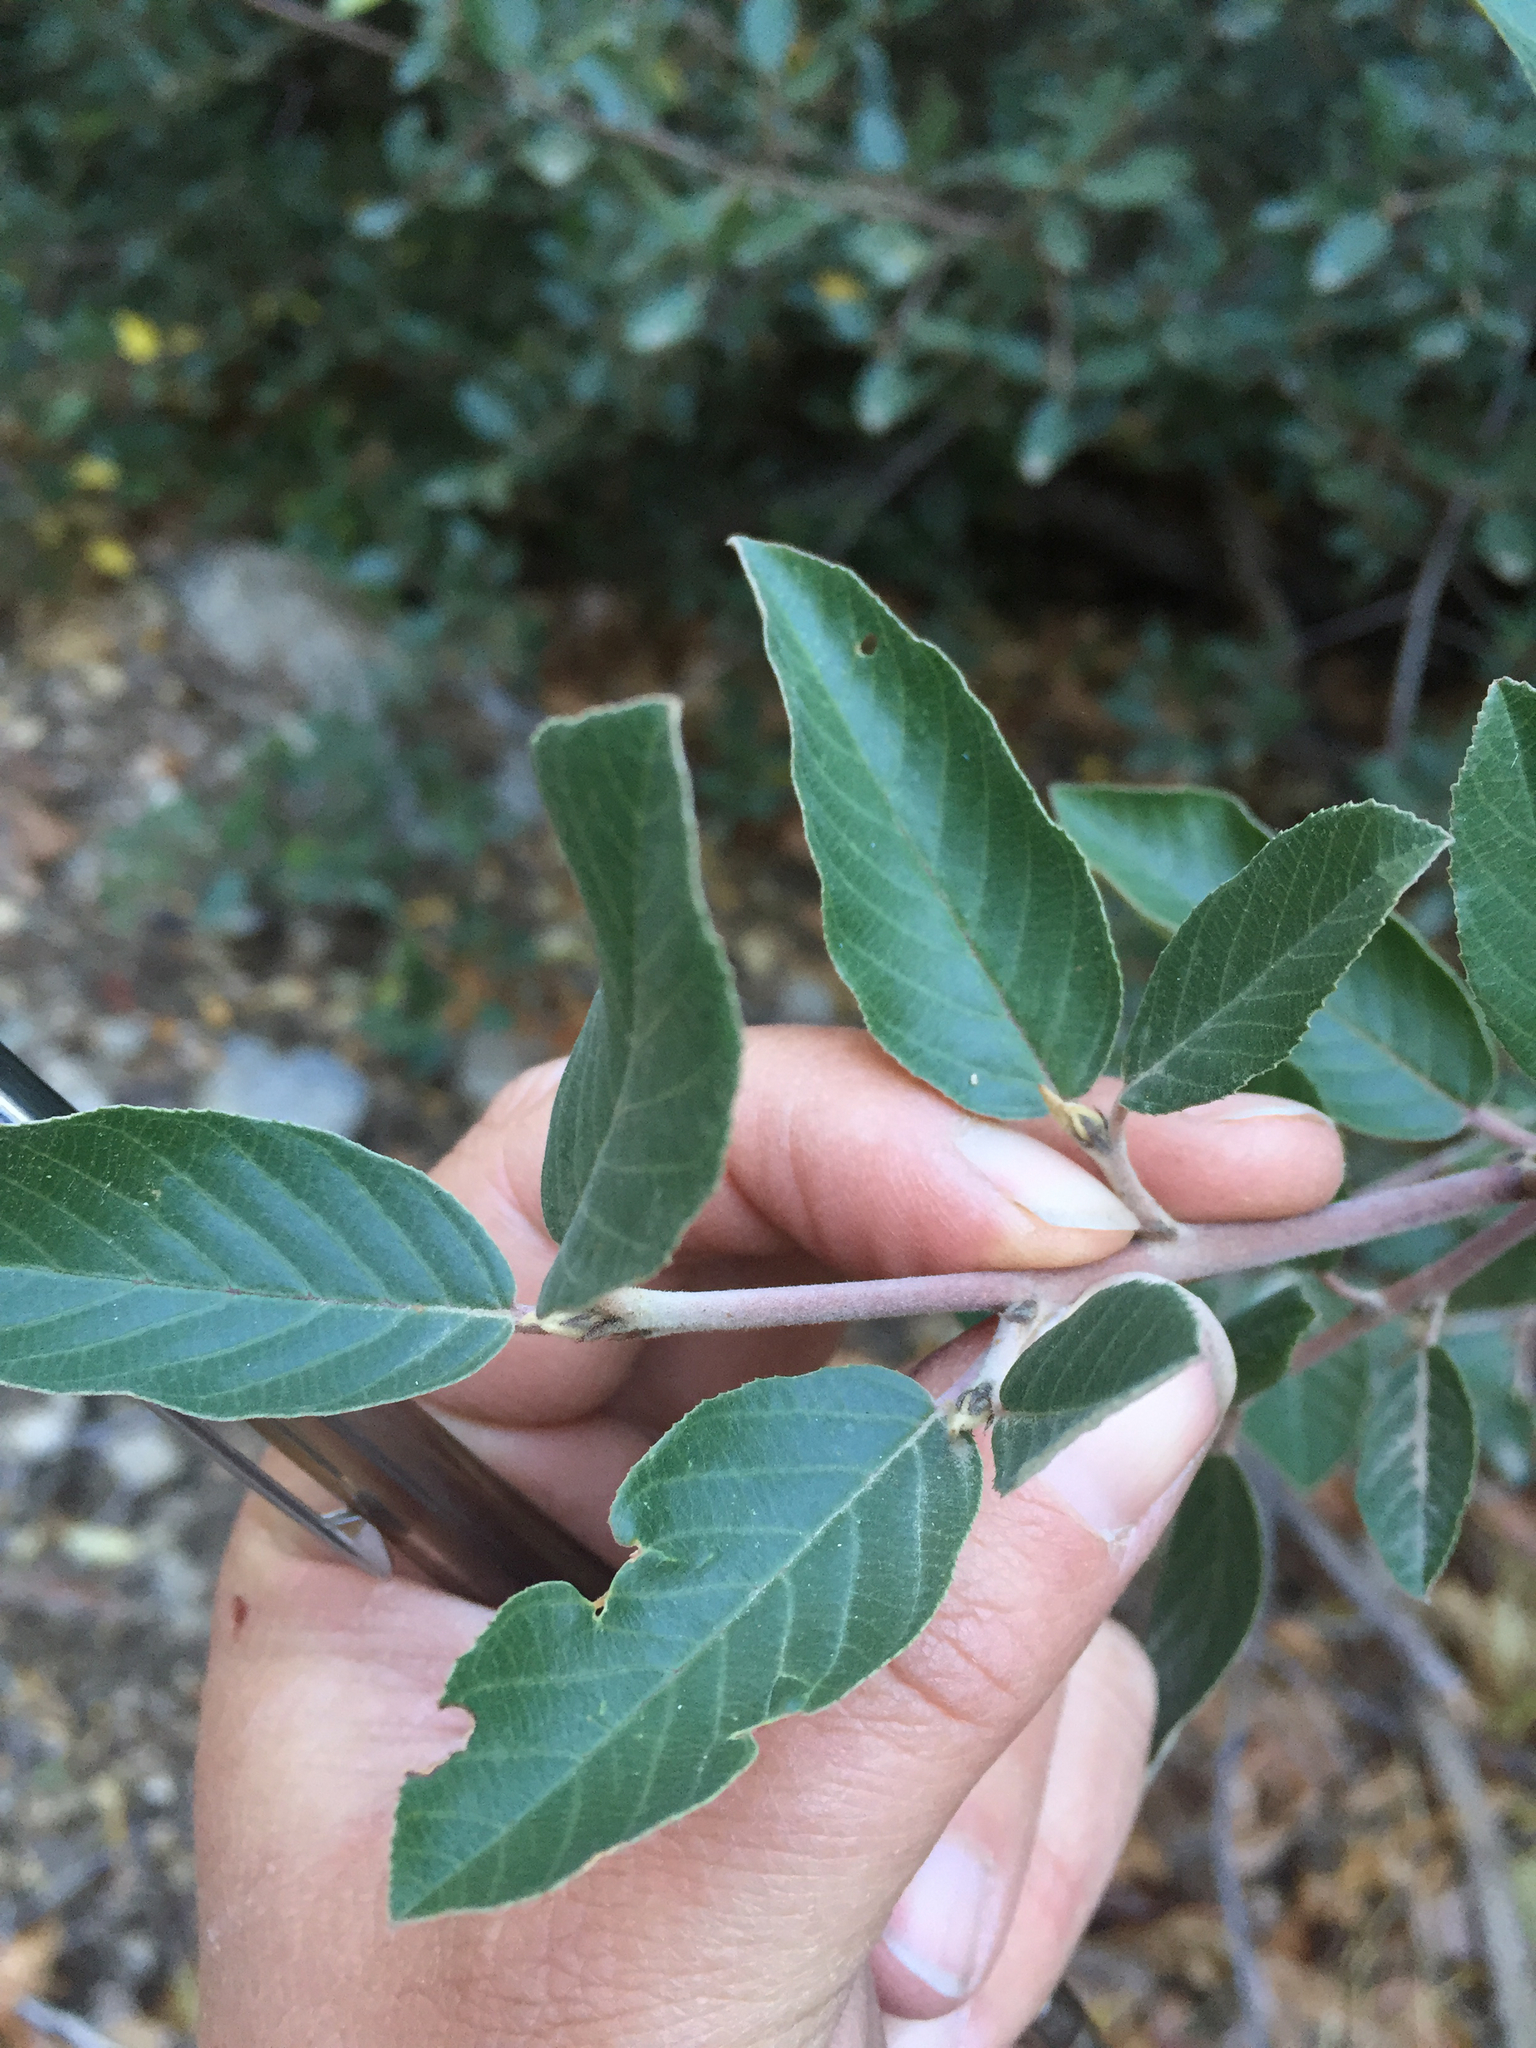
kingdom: Plantae
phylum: Tracheophyta
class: Magnoliopsida
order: Rosales
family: Rhamnaceae
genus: Frangula
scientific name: Frangula californica
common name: California buckthorn
